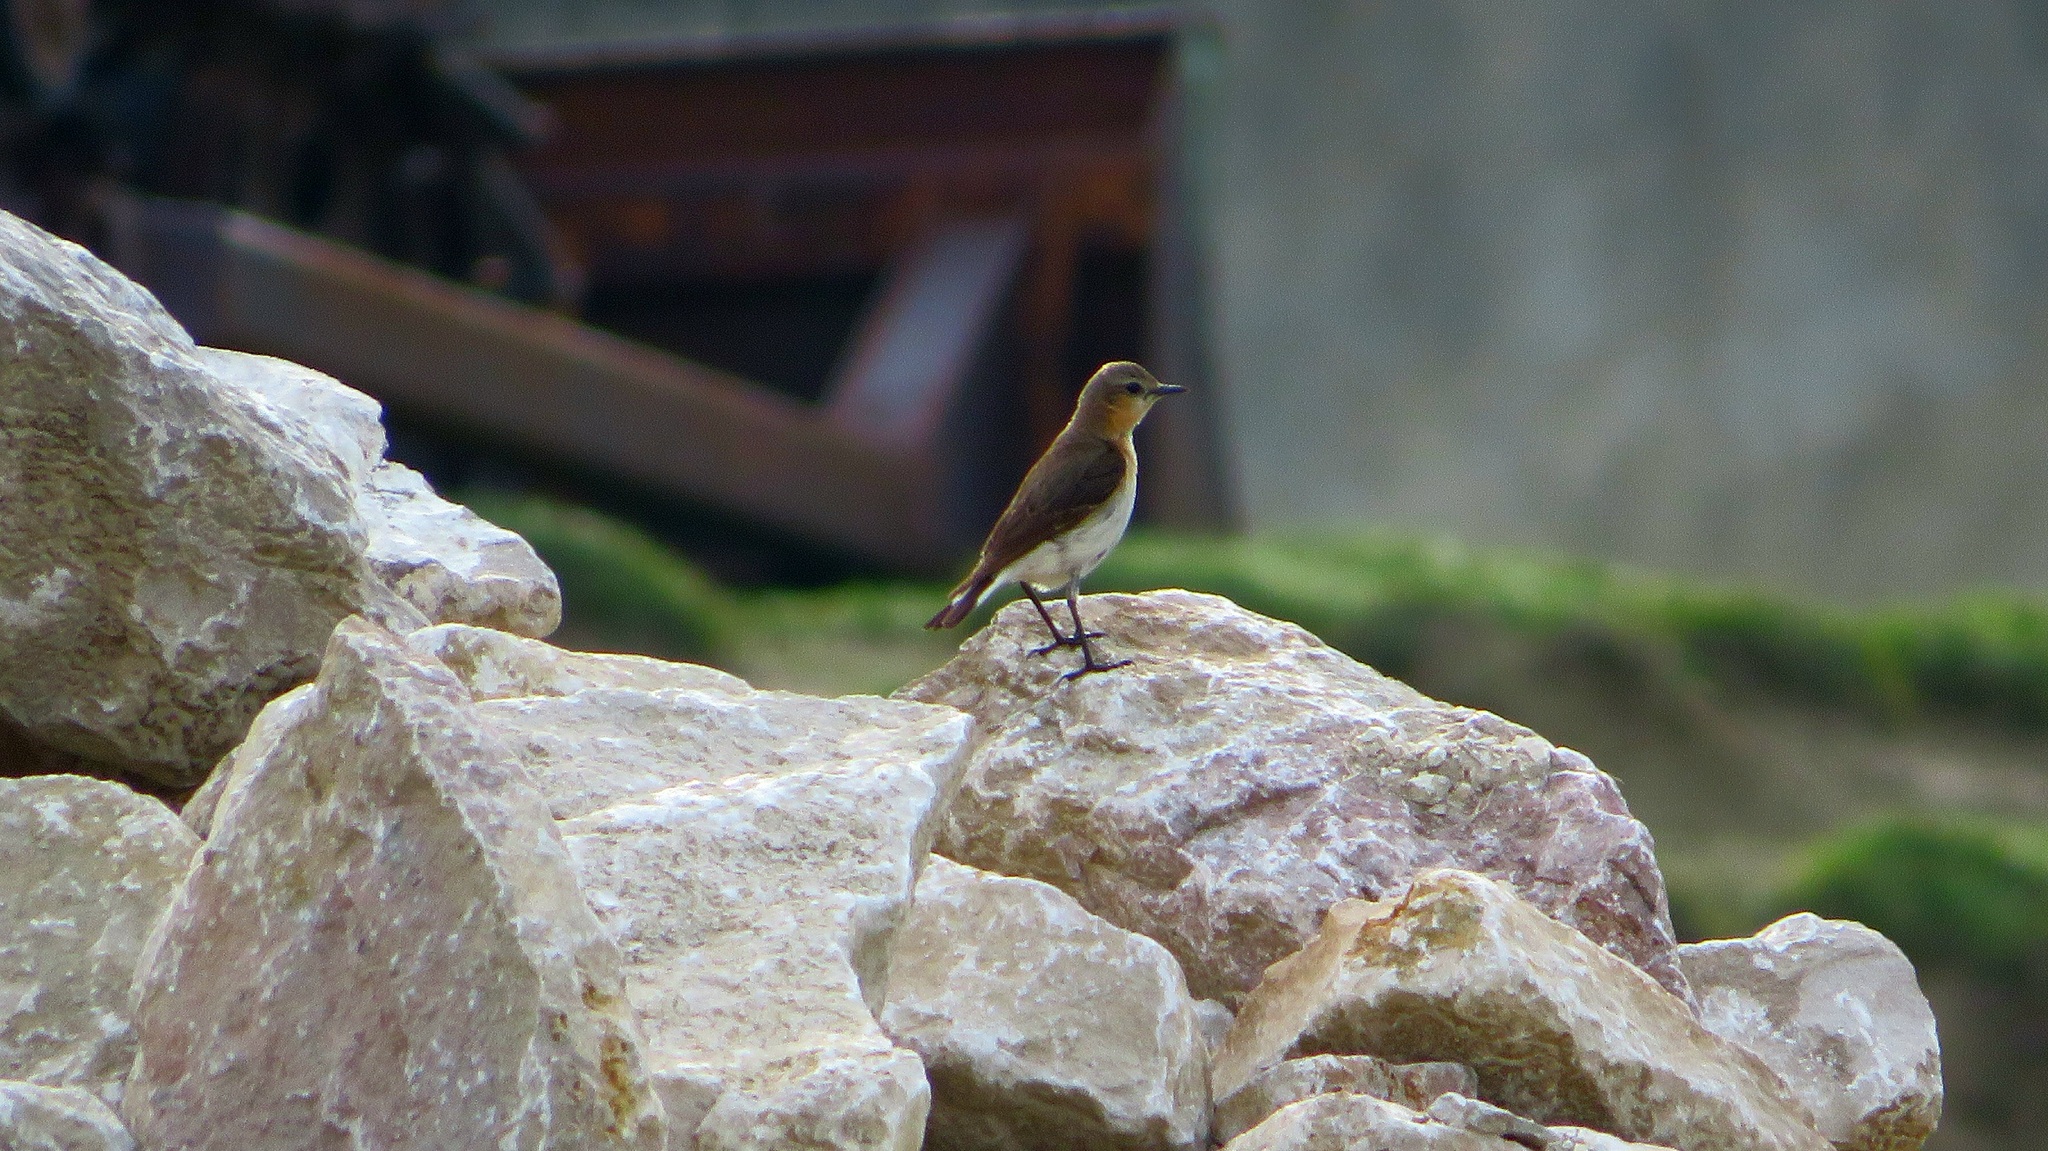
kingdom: Animalia
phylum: Chordata
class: Aves
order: Passeriformes
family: Muscicapidae
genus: Oenanthe
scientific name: Oenanthe oenanthe
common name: Northern wheatear
